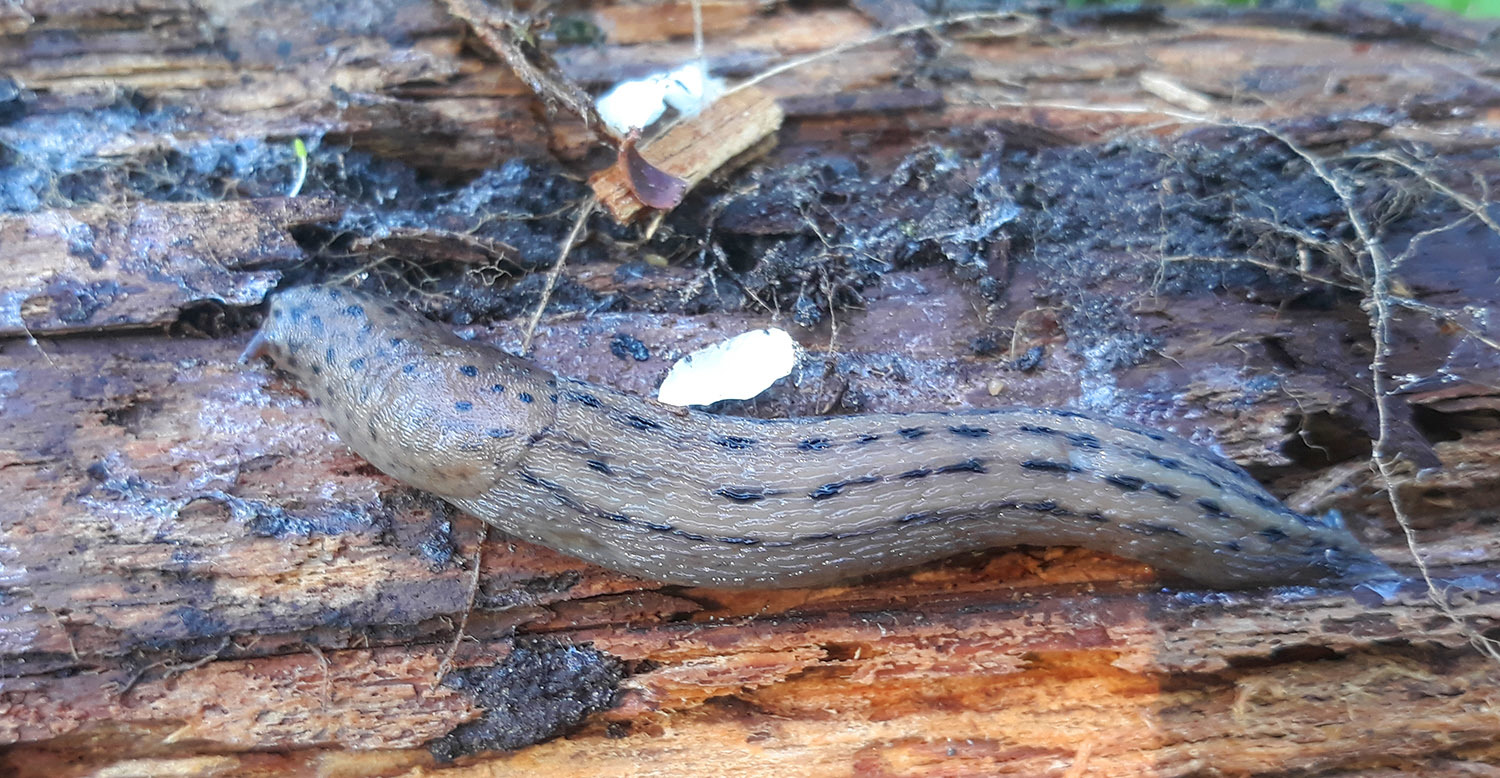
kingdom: Animalia
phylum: Mollusca
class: Gastropoda
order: Stylommatophora
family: Limacidae
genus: Limax
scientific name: Limax maximus
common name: Great grey slug
